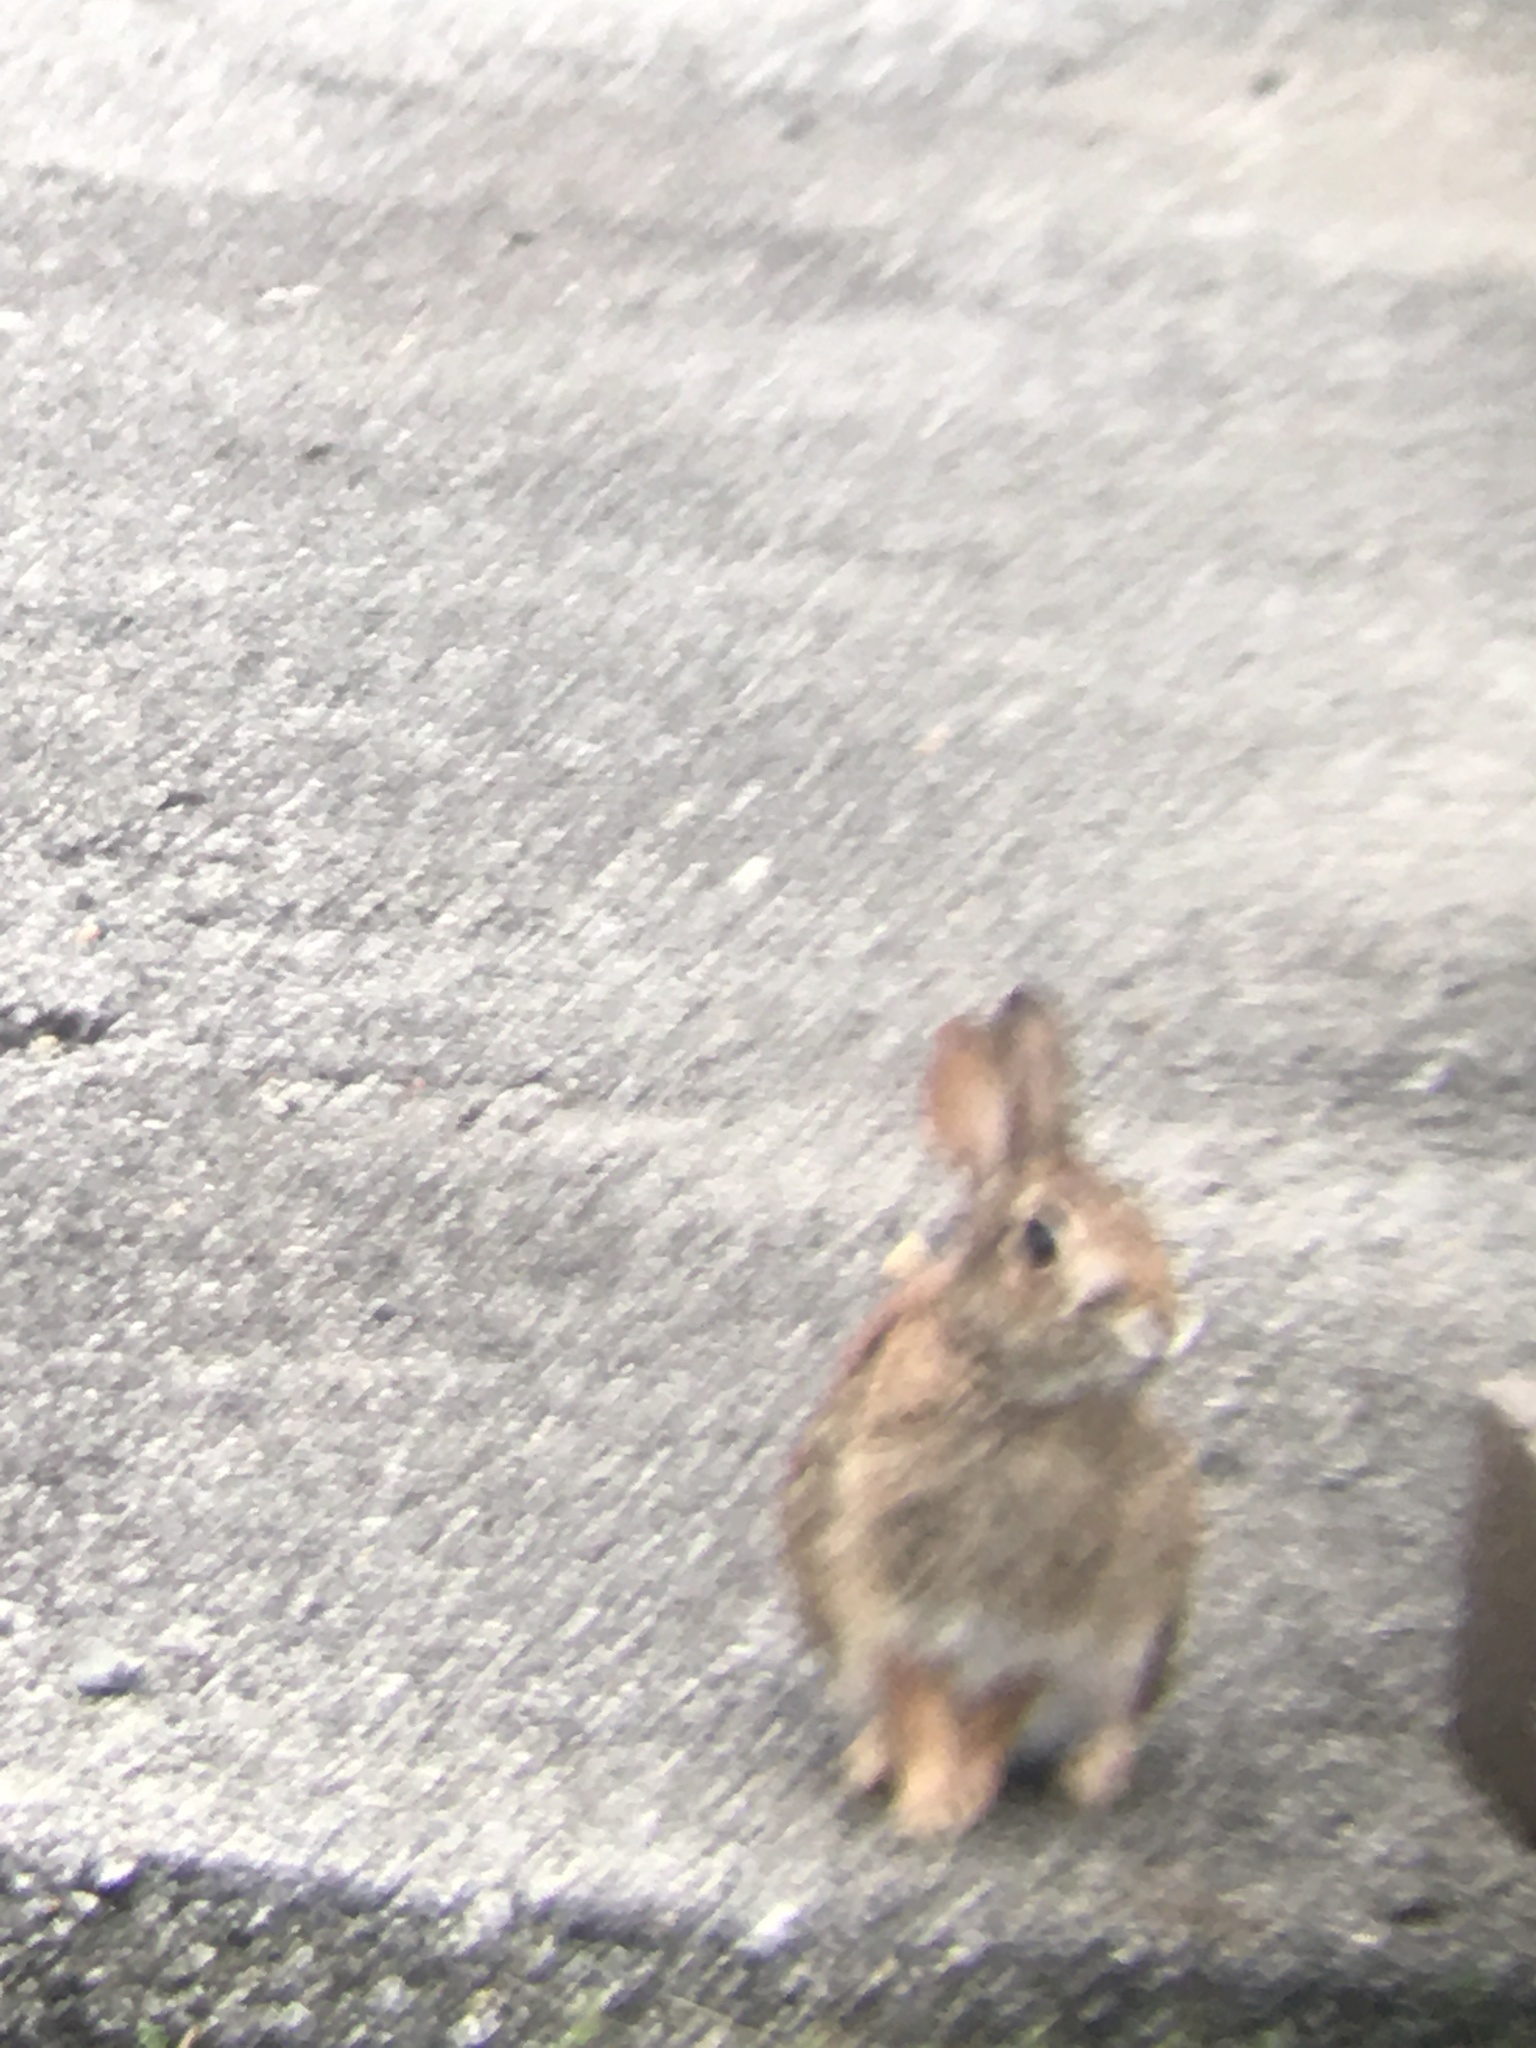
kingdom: Animalia
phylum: Chordata
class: Mammalia
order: Lagomorpha
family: Leporidae
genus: Sylvilagus
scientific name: Sylvilagus floridanus
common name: Eastern cottontail
